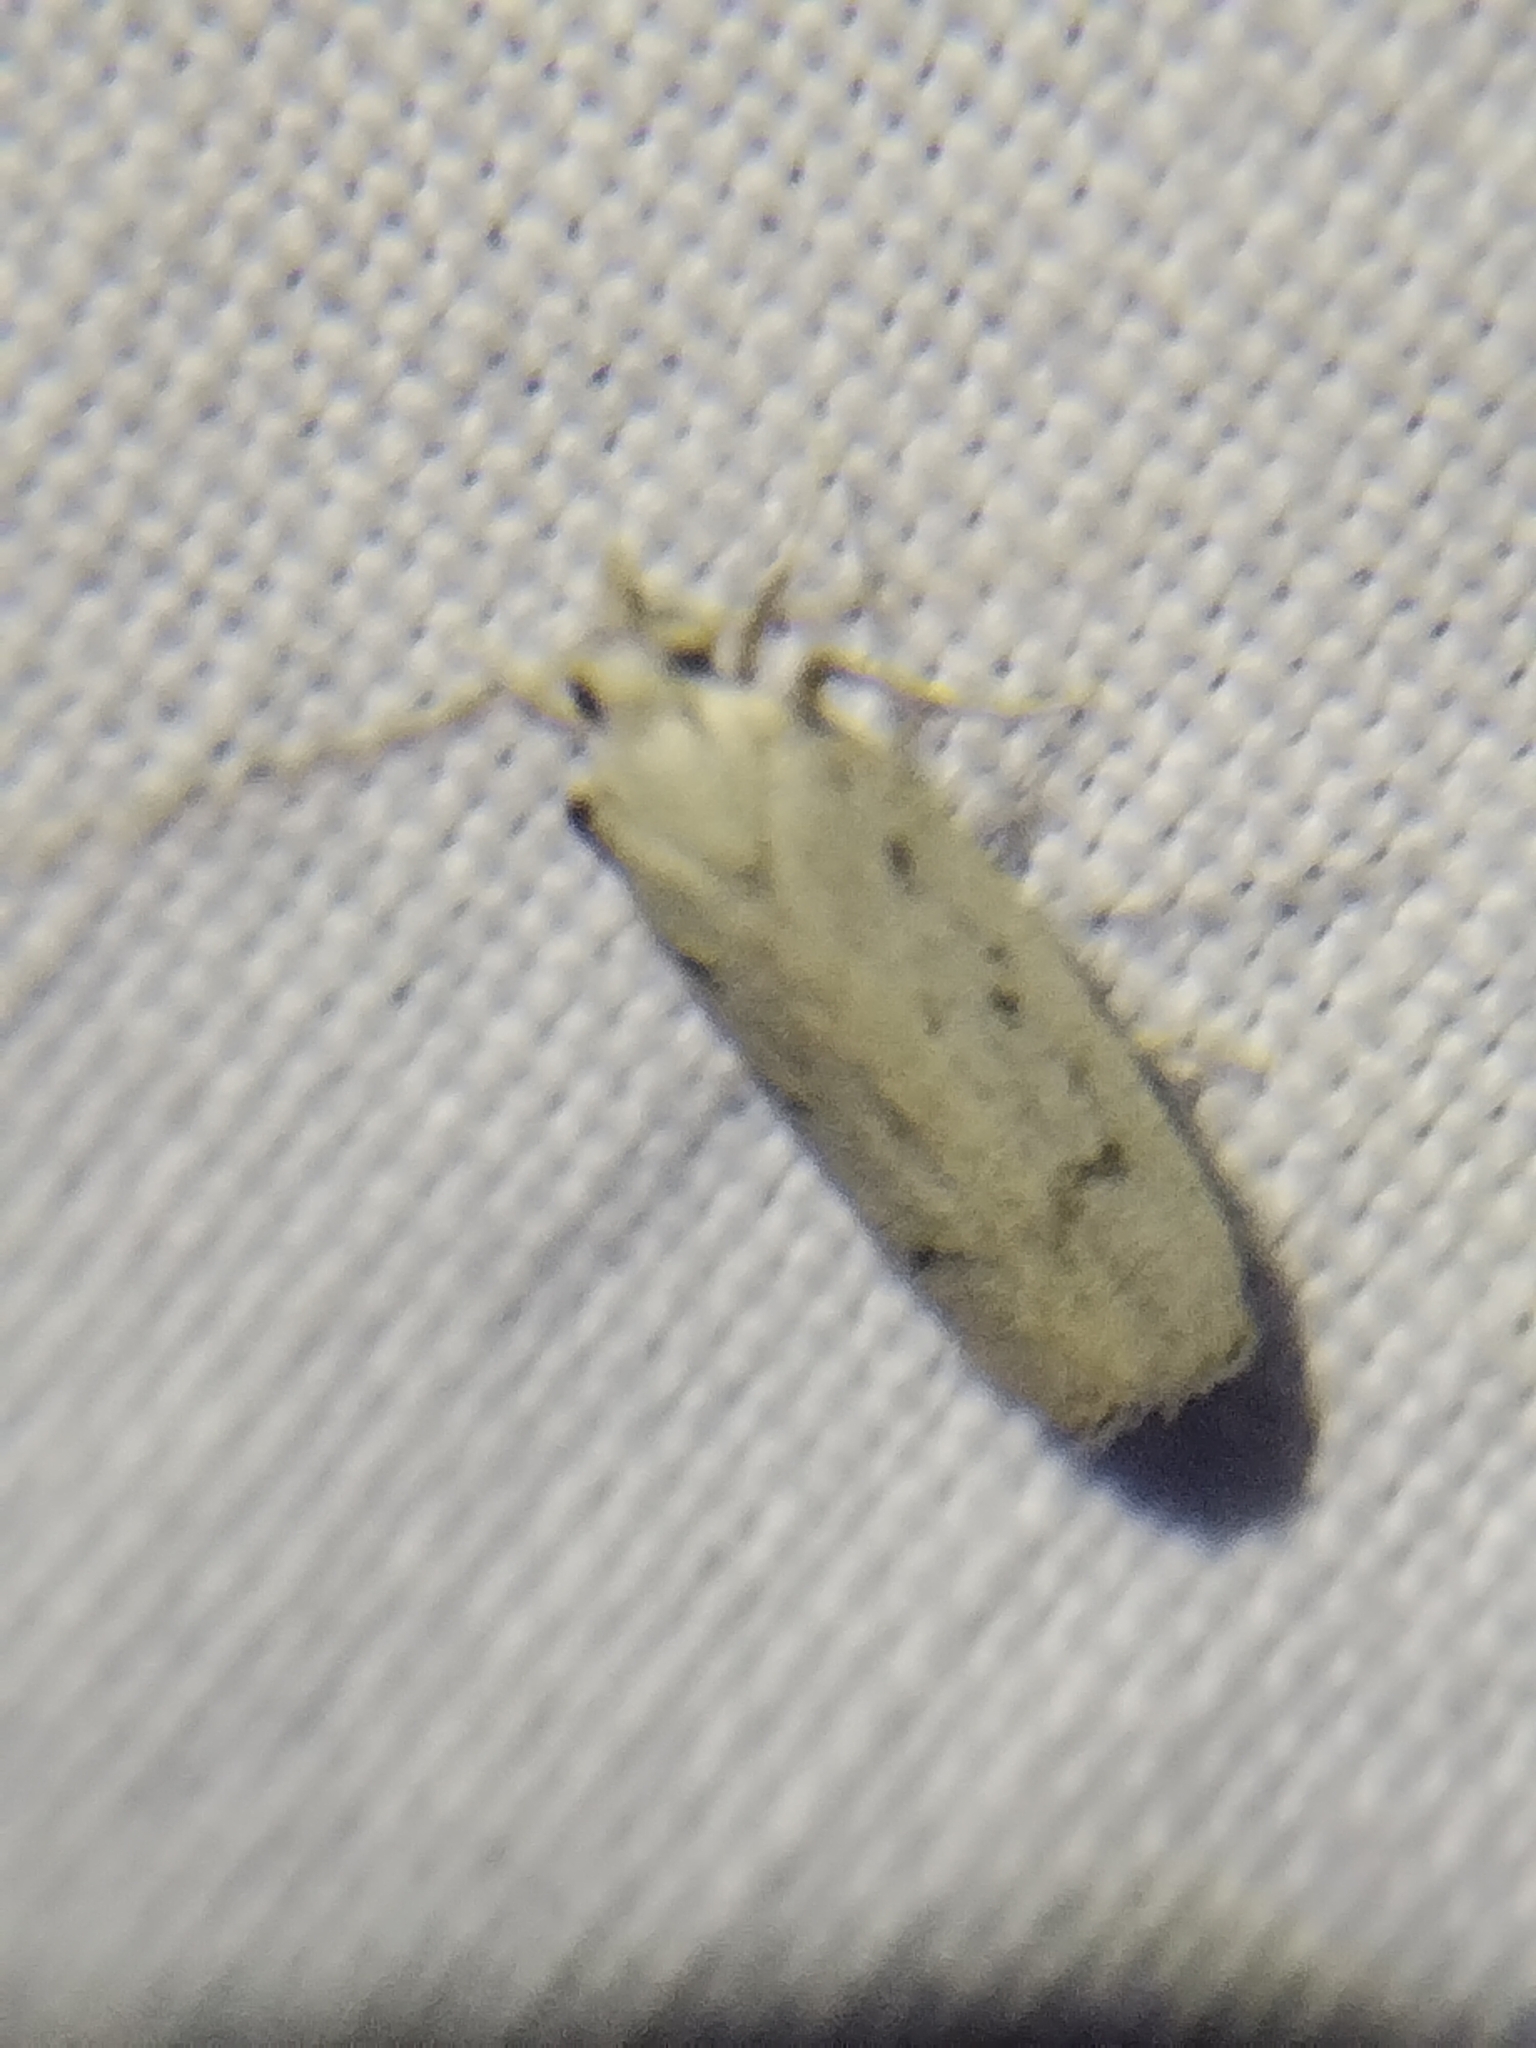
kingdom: Animalia
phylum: Arthropoda
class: Insecta
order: Lepidoptera
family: Autostichidae
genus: Glyphidocera
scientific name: Glyphidocera lactiflosella
